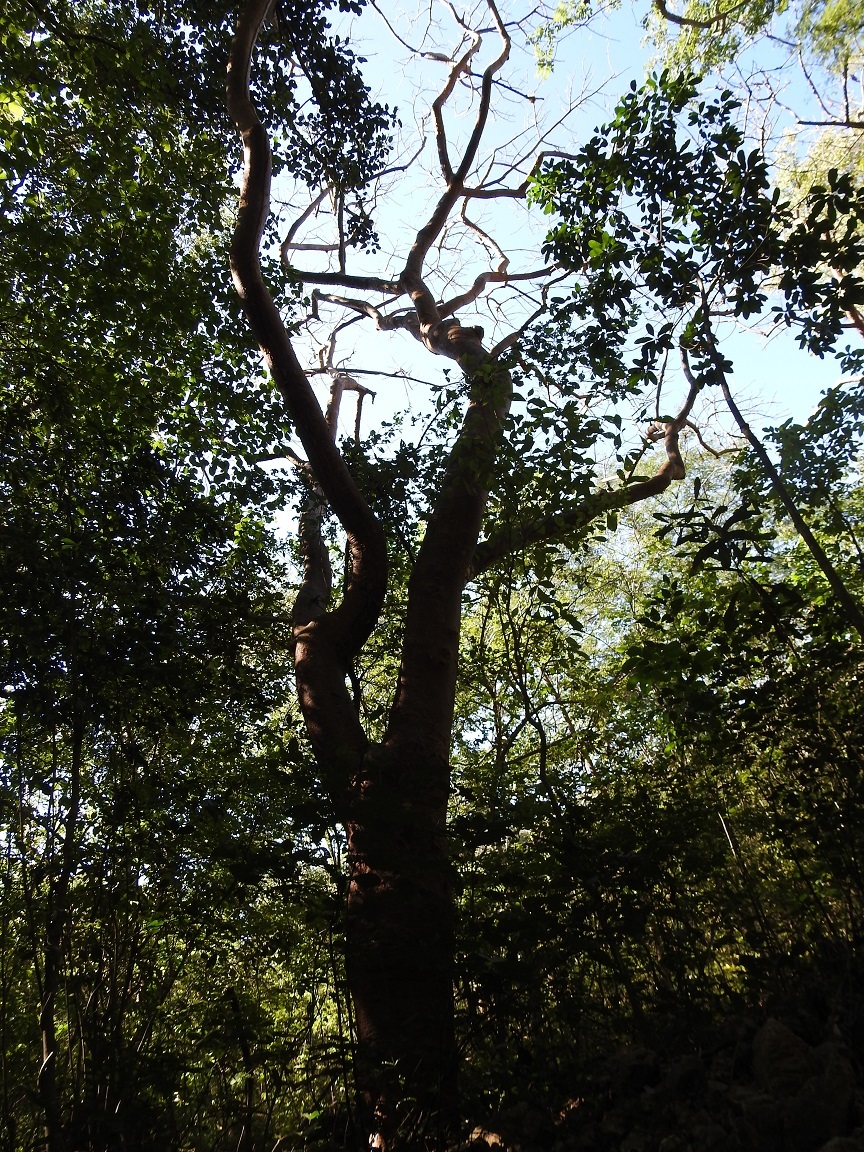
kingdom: Plantae
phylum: Tracheophyta
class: Magnoliopsida
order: Sapindales
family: Burseraceae
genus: Bursera
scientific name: Bursera simaruba
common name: Turpentine tree
